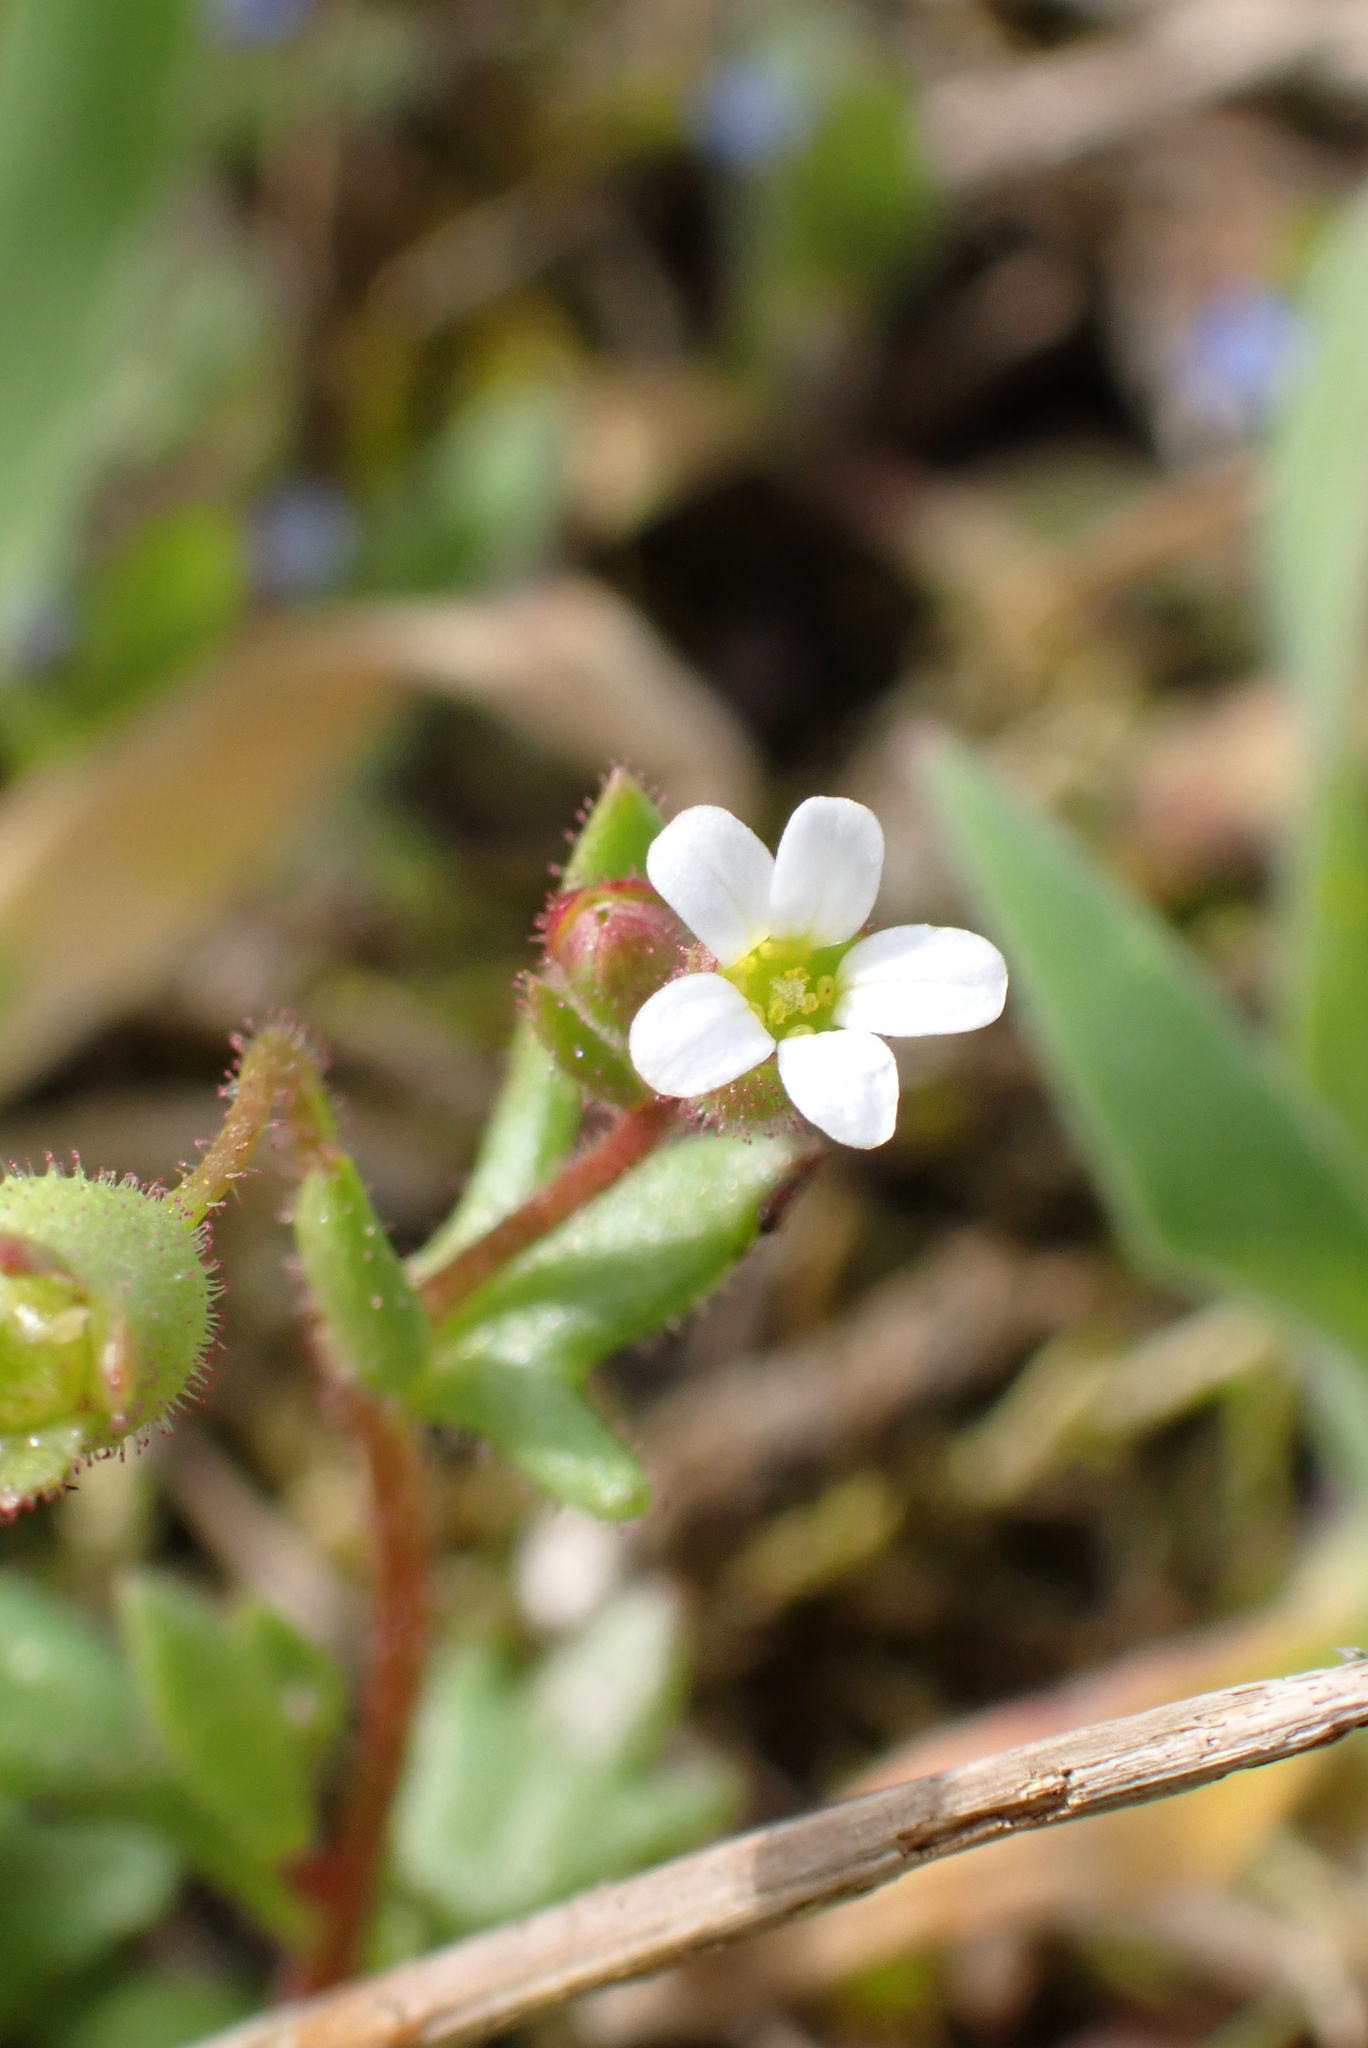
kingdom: Plantae
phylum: Tracheophyta
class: Magnoliopsida
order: Saxifragales
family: Saxifragaceae
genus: Saxifraga
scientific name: Saxifraga tridactylites
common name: Rue-leaved saxifrage
